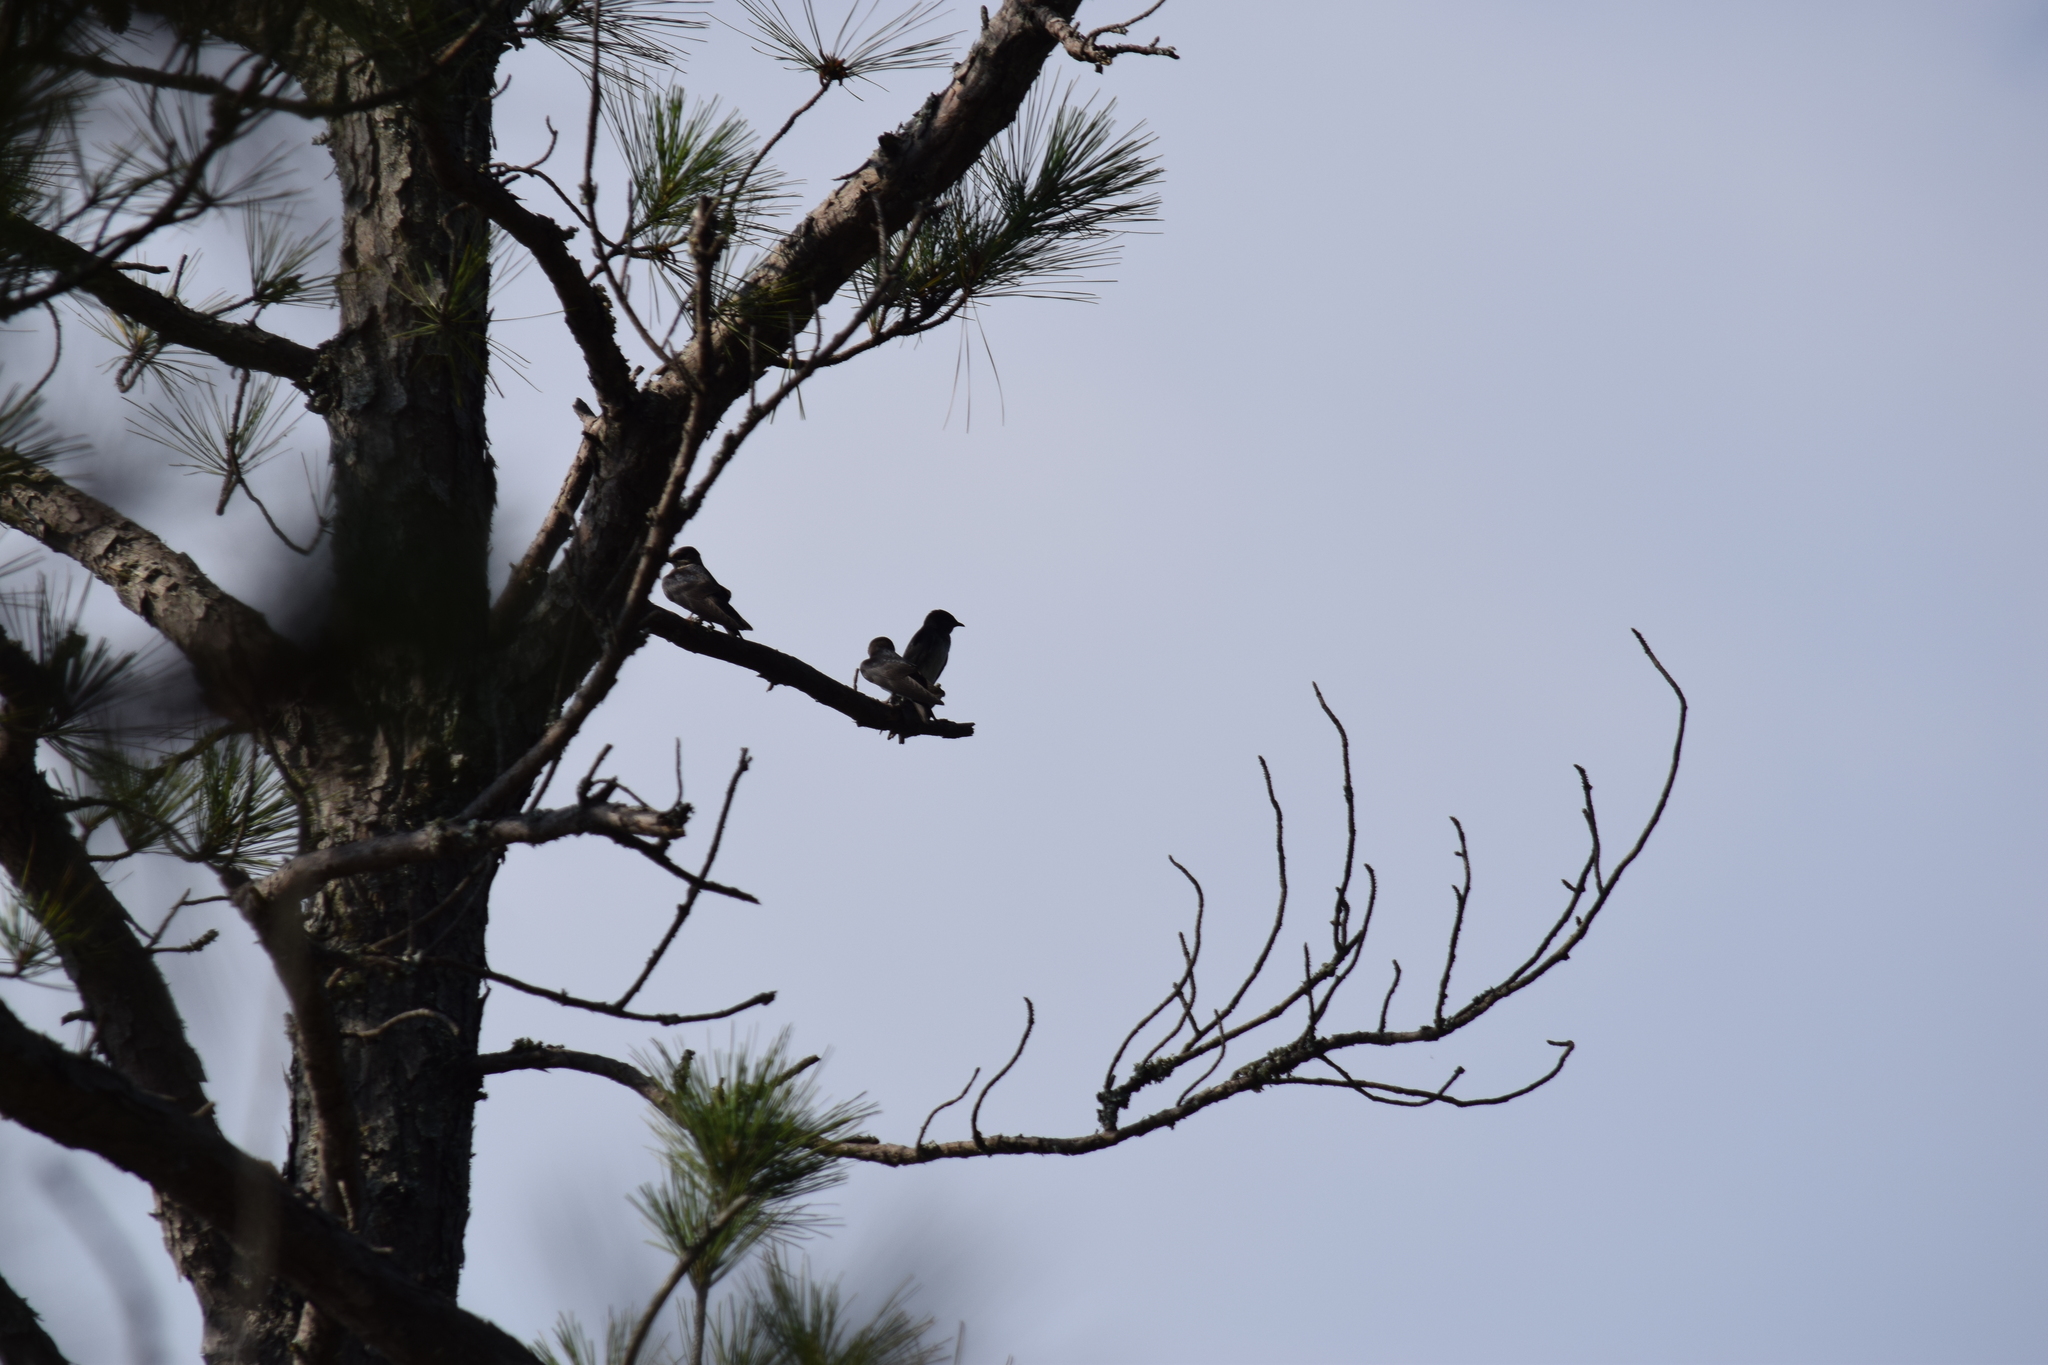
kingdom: Animalia
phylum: Chordata
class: Aves
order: Passeriformes
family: Hirundinidae
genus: Tachycineta
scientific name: Tachycineta bicolor
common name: Tree swallow
